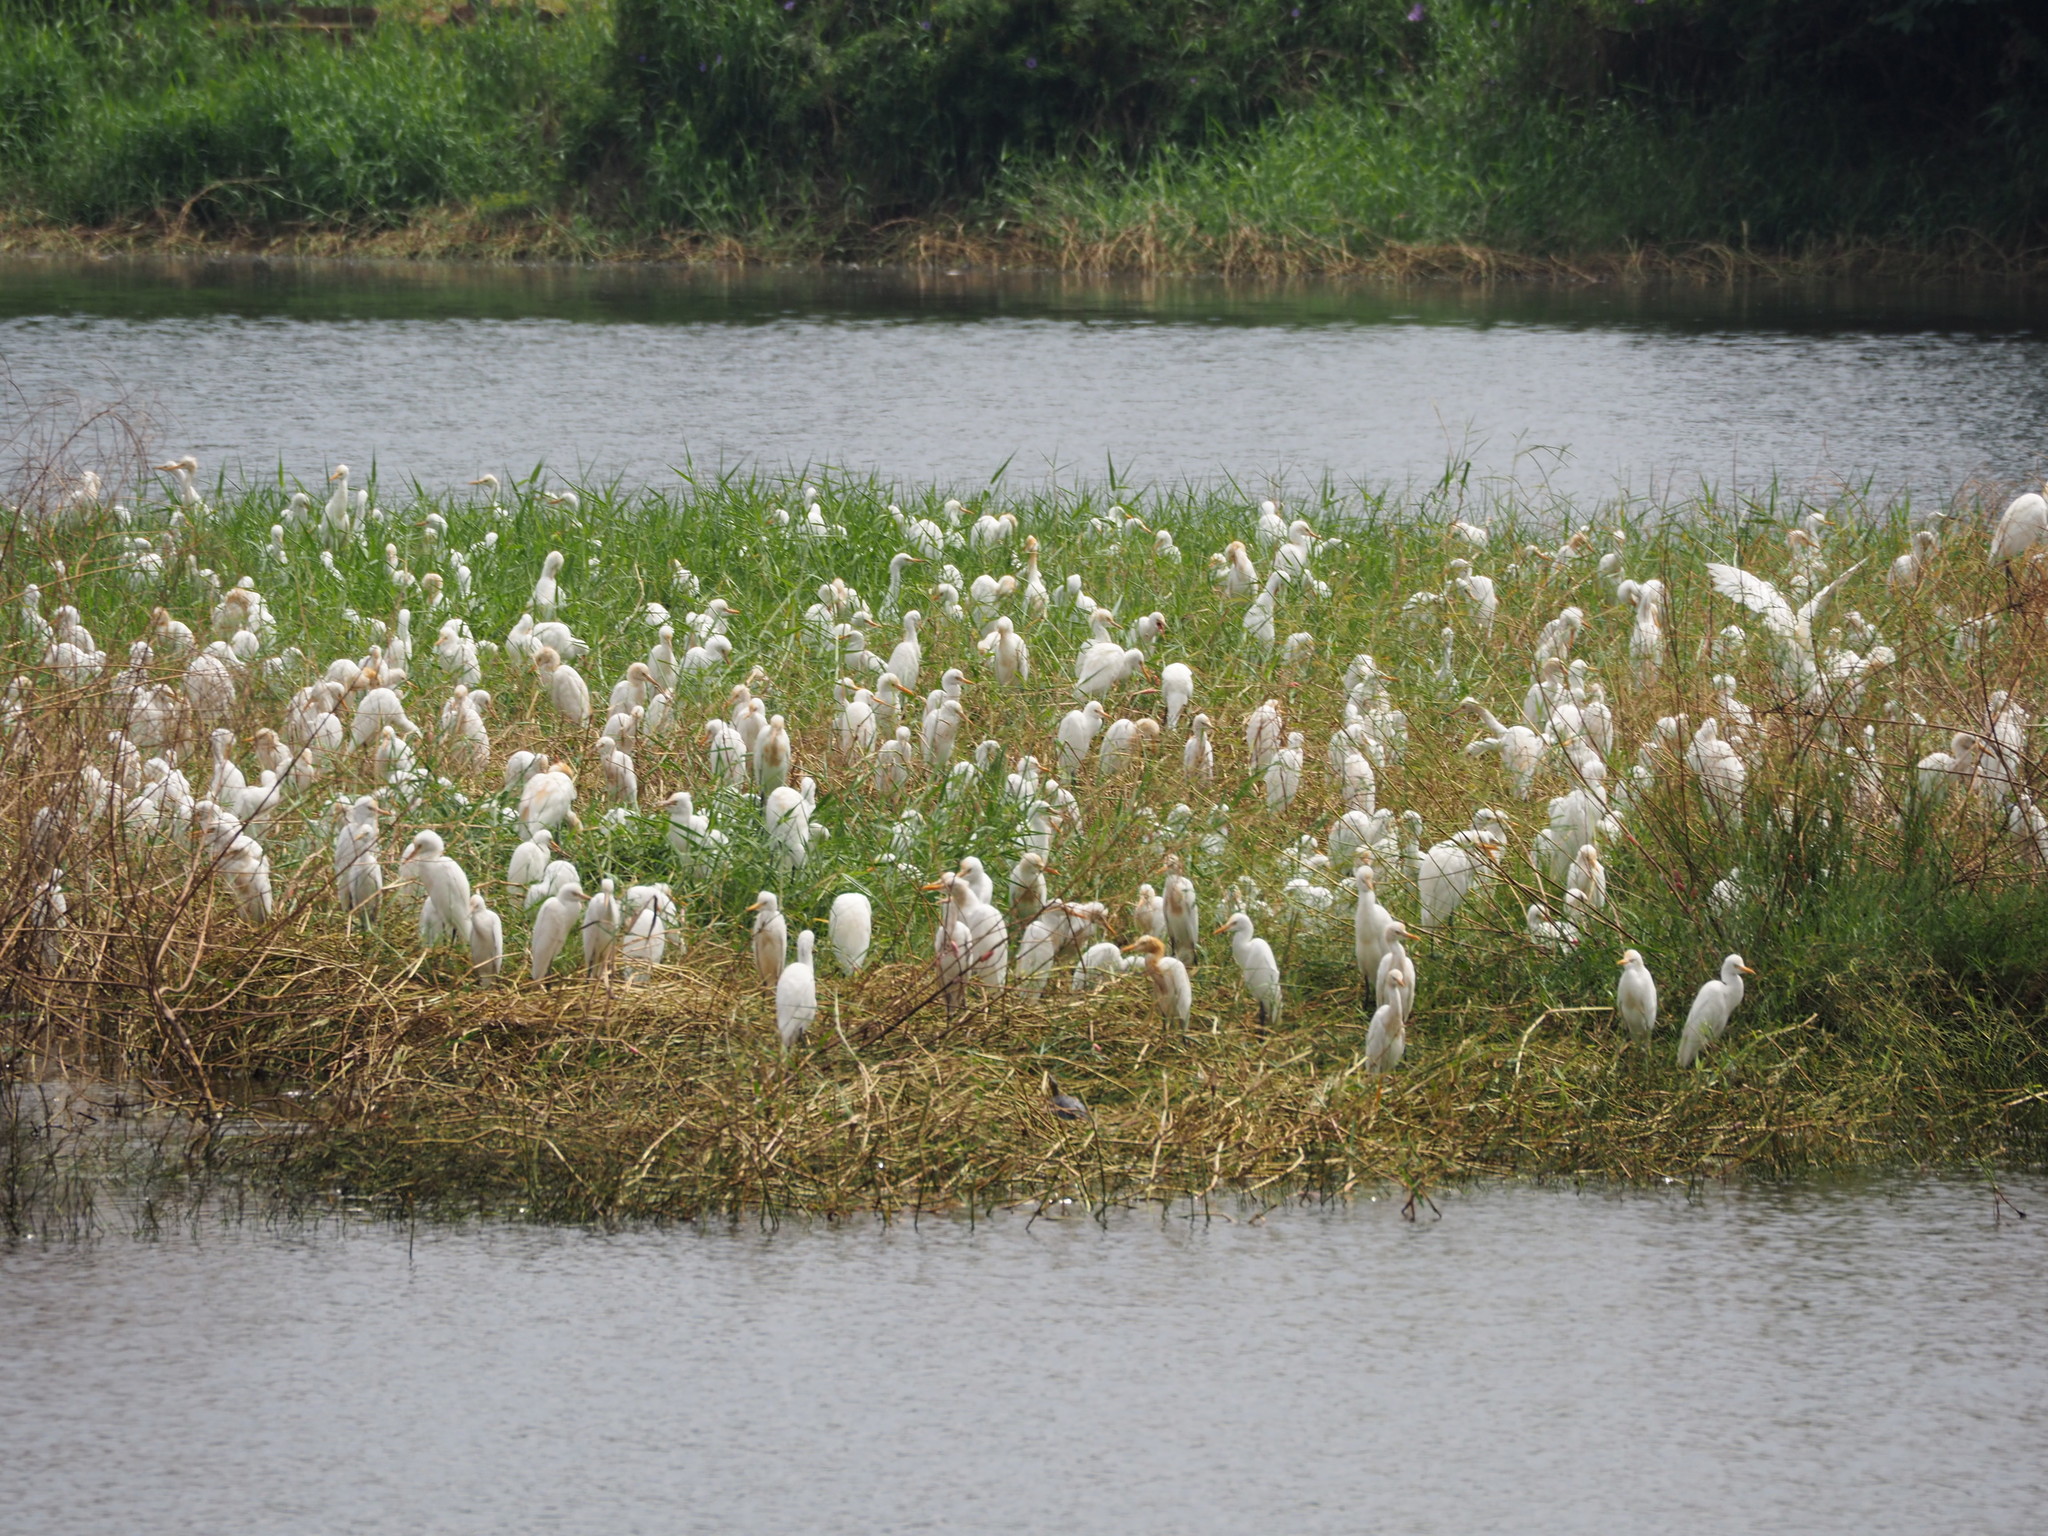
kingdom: Animalia
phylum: Chordata
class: Aves
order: Pelecaniformes
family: Ardeidae
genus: Bubulcus
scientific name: Bubulcus coromandus
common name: Eastern cattle egret
